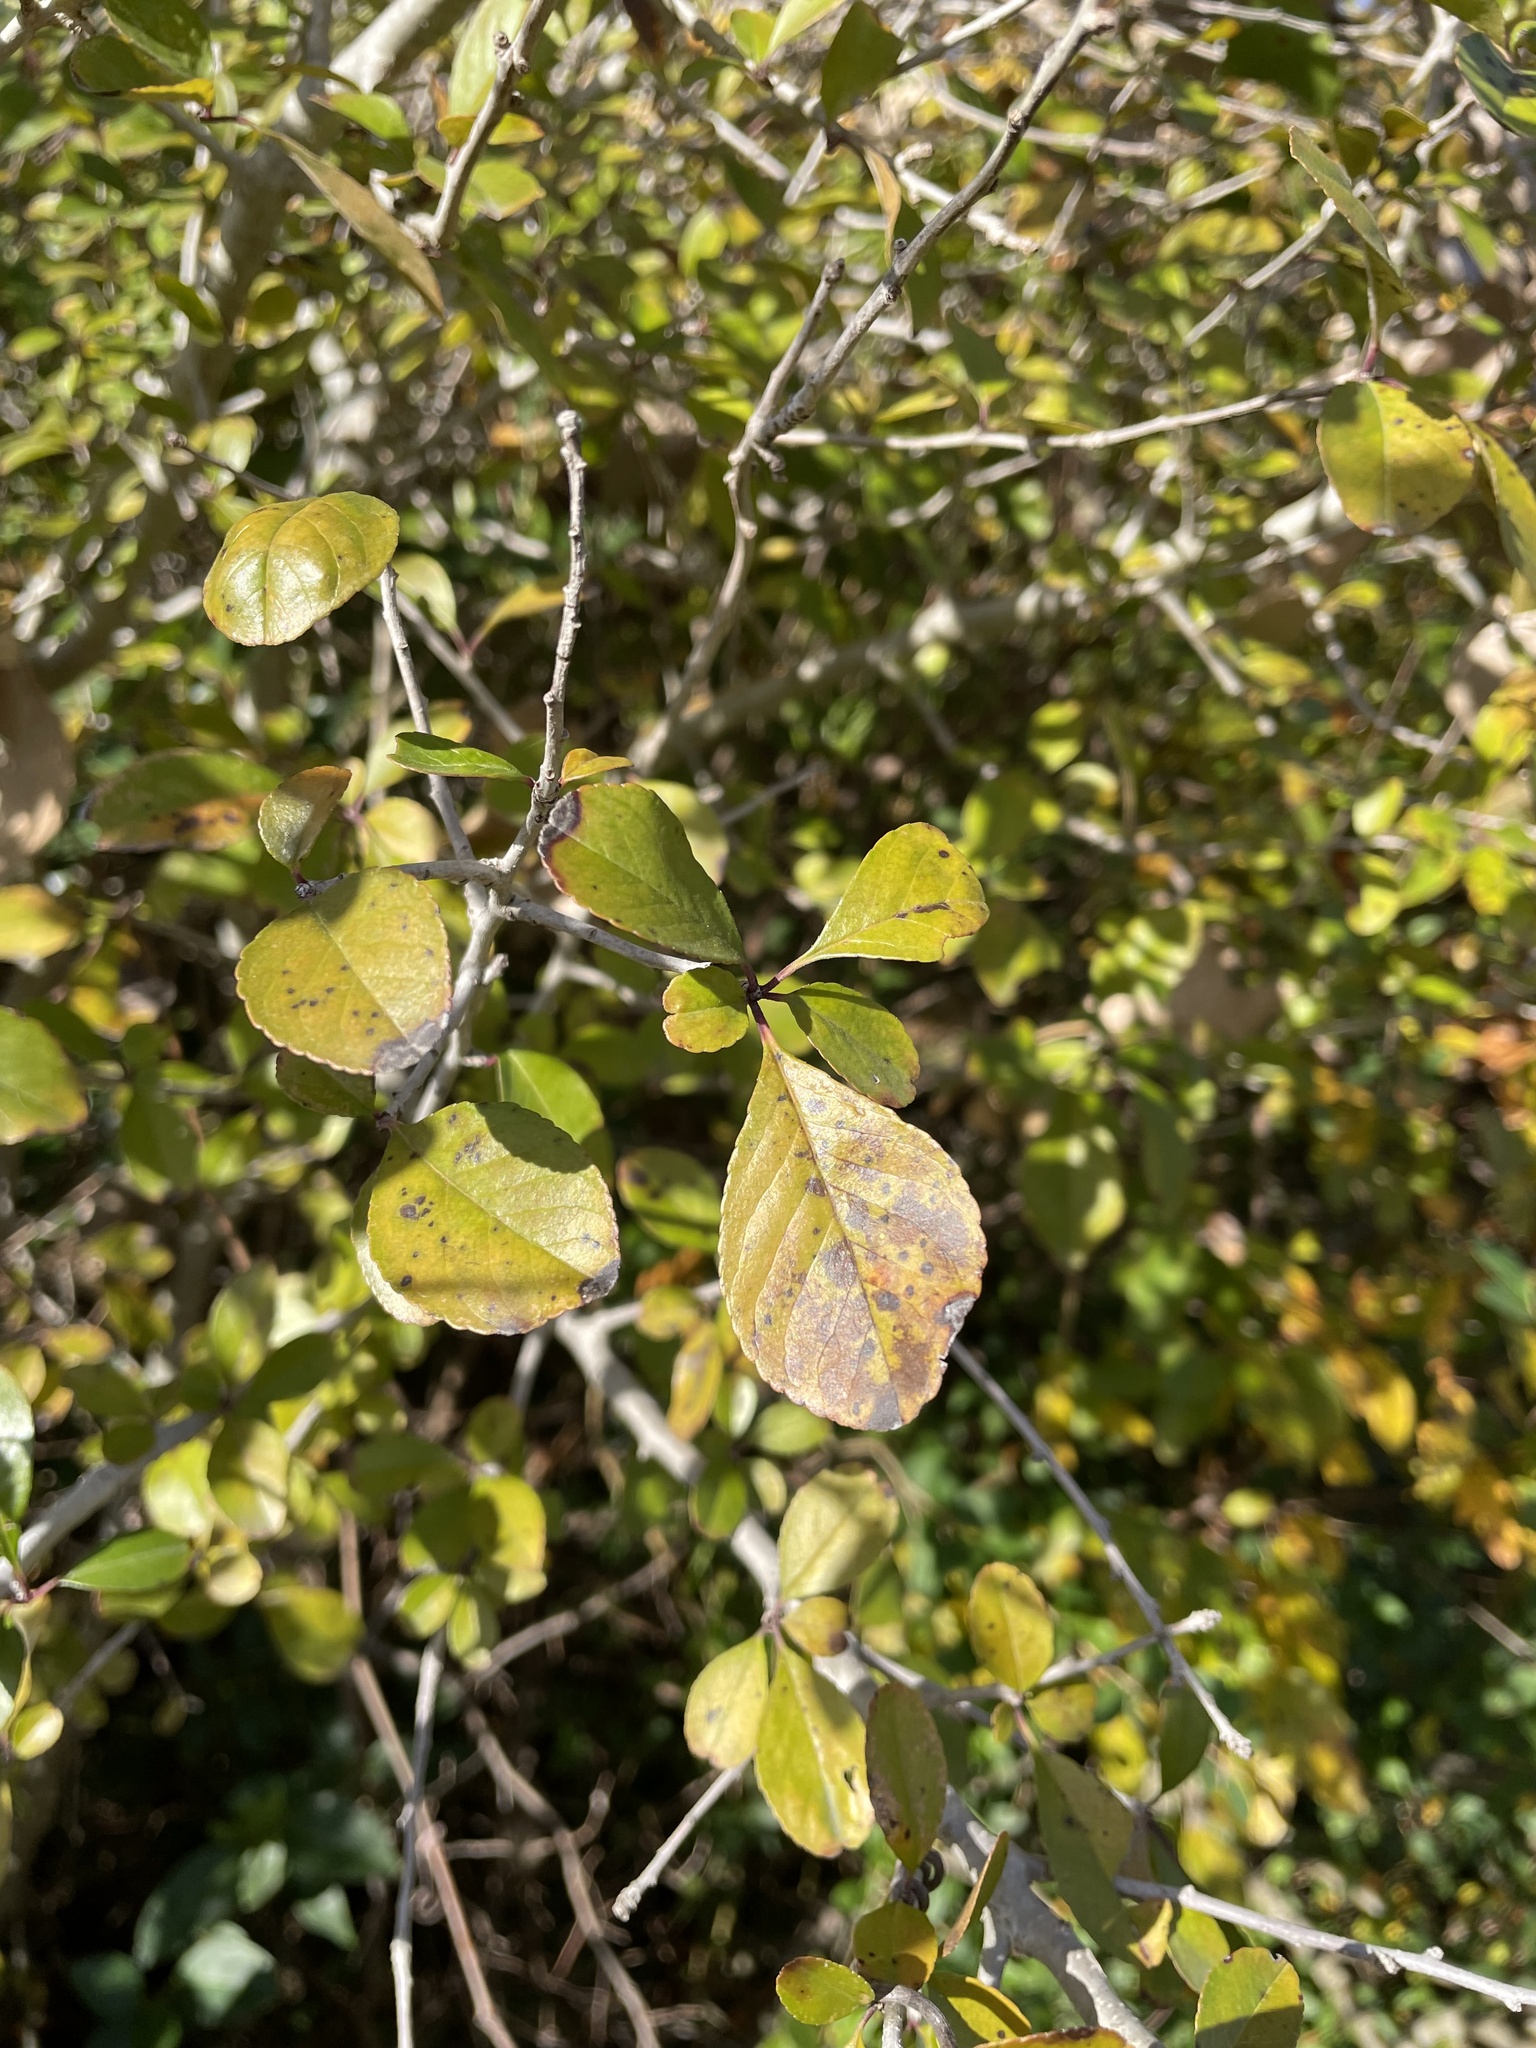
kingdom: Plantae
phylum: Tracheophyta
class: Magnoliopsida
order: Aquifoliales
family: Aquifoliaceae
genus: Ilex
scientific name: Ilex decidua
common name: Possum-haw
